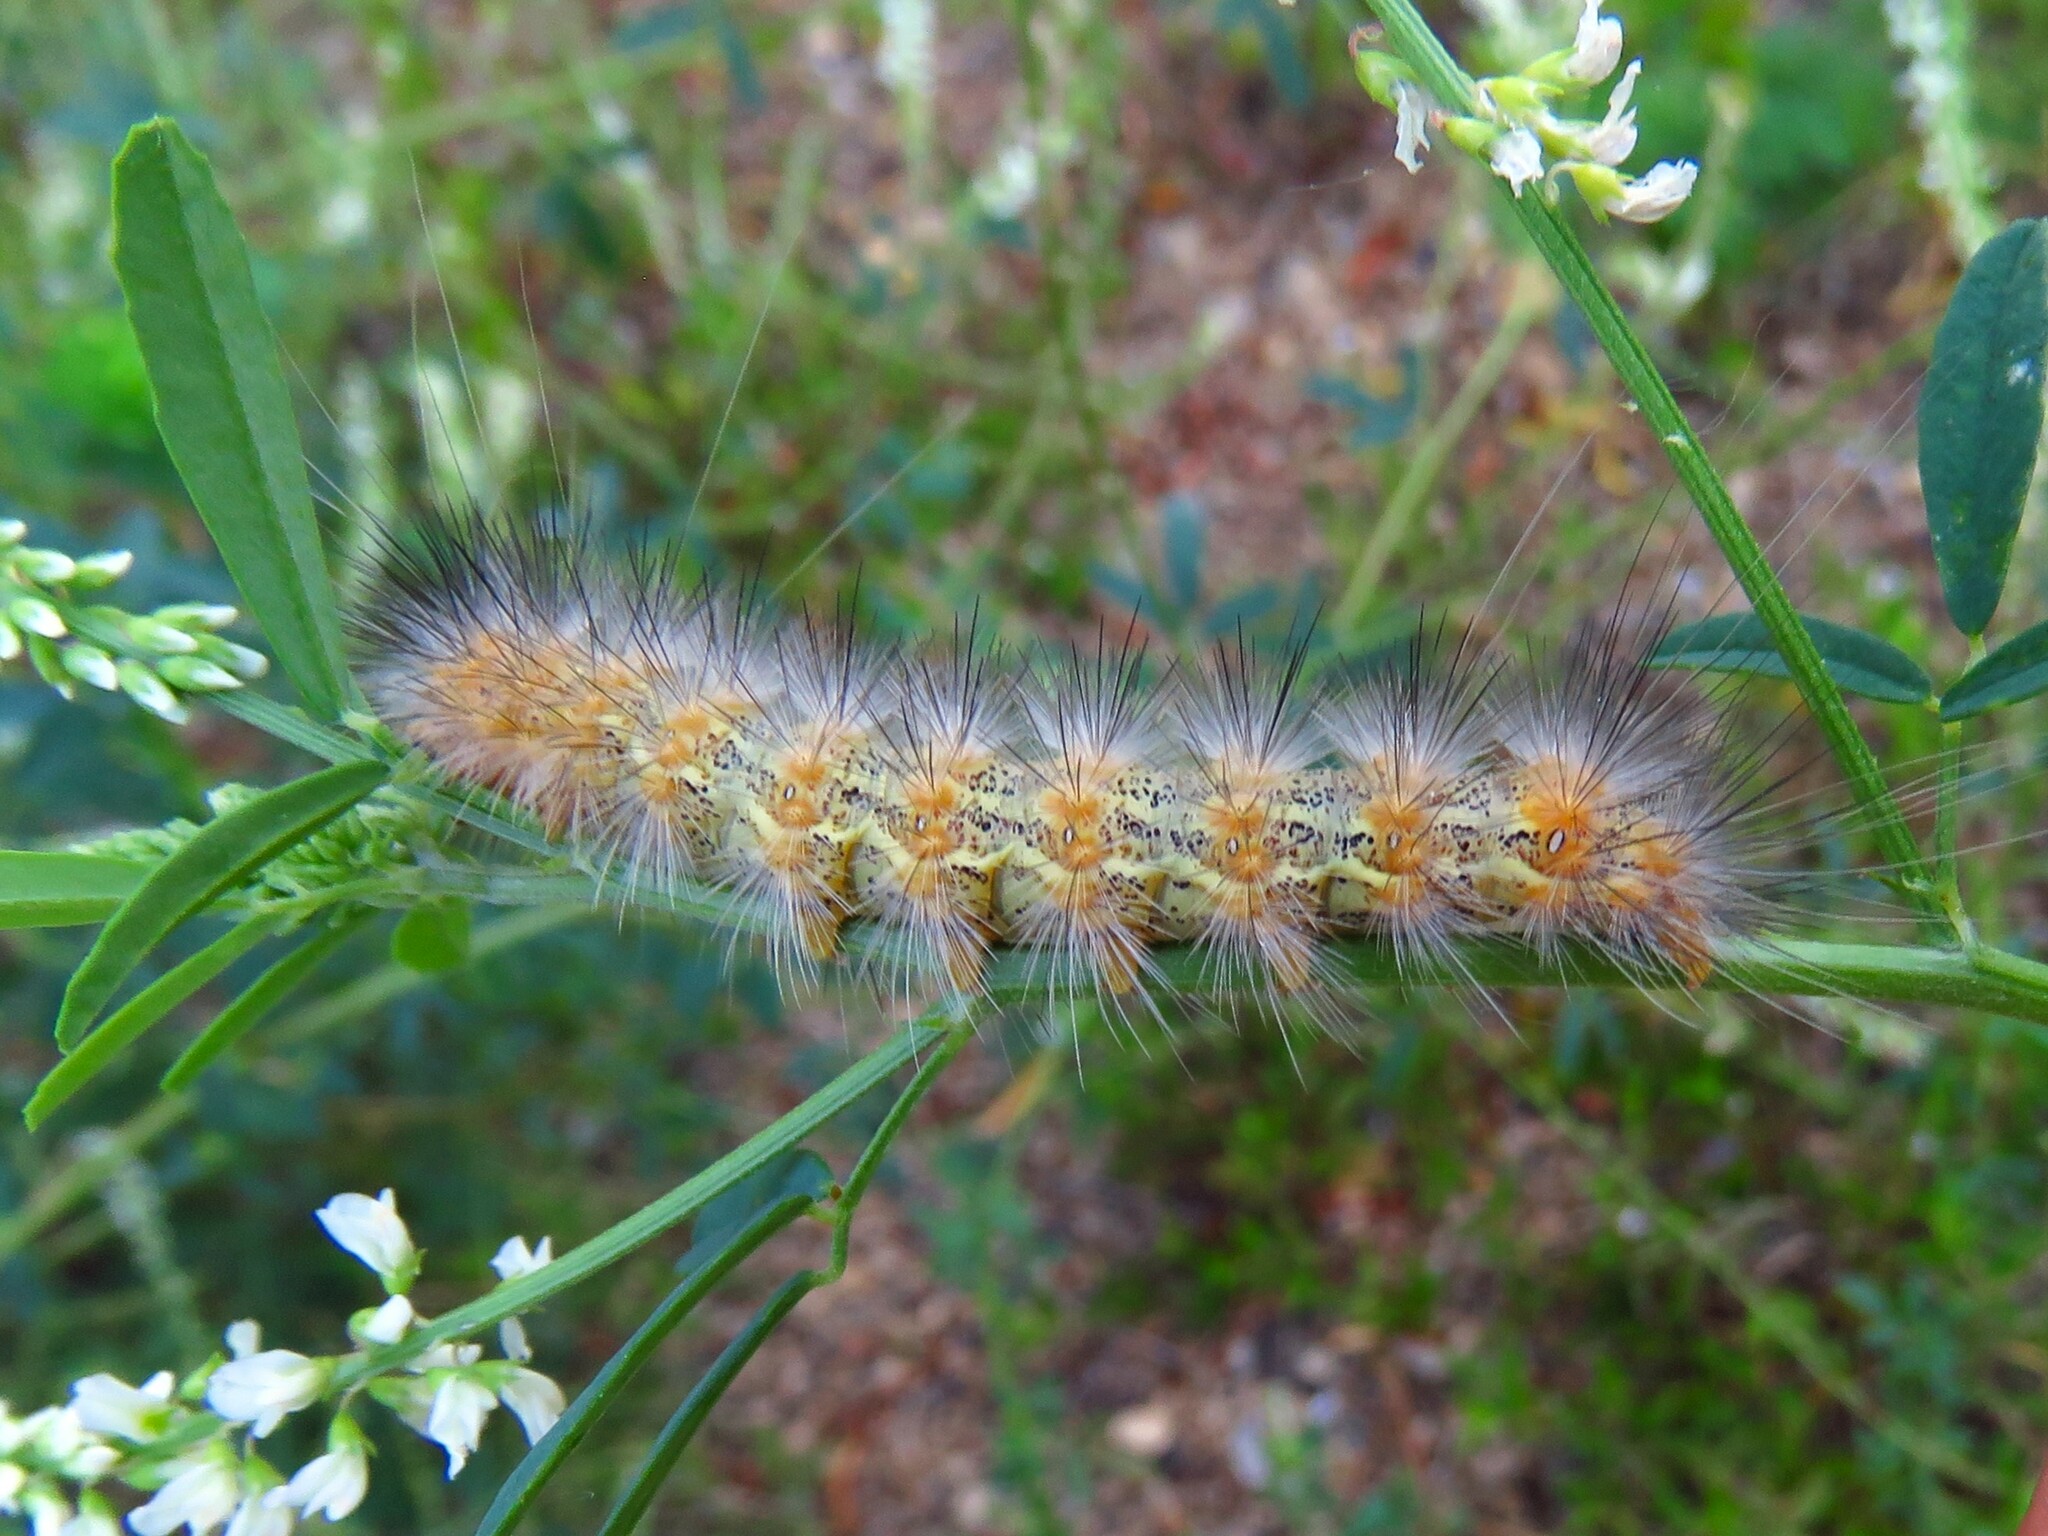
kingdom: Animalia
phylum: Arthropoda
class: Insecta
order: Lepidoptera
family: Erebidae
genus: Estigmene
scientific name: Estigmene acrea
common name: Salt marsh moth
